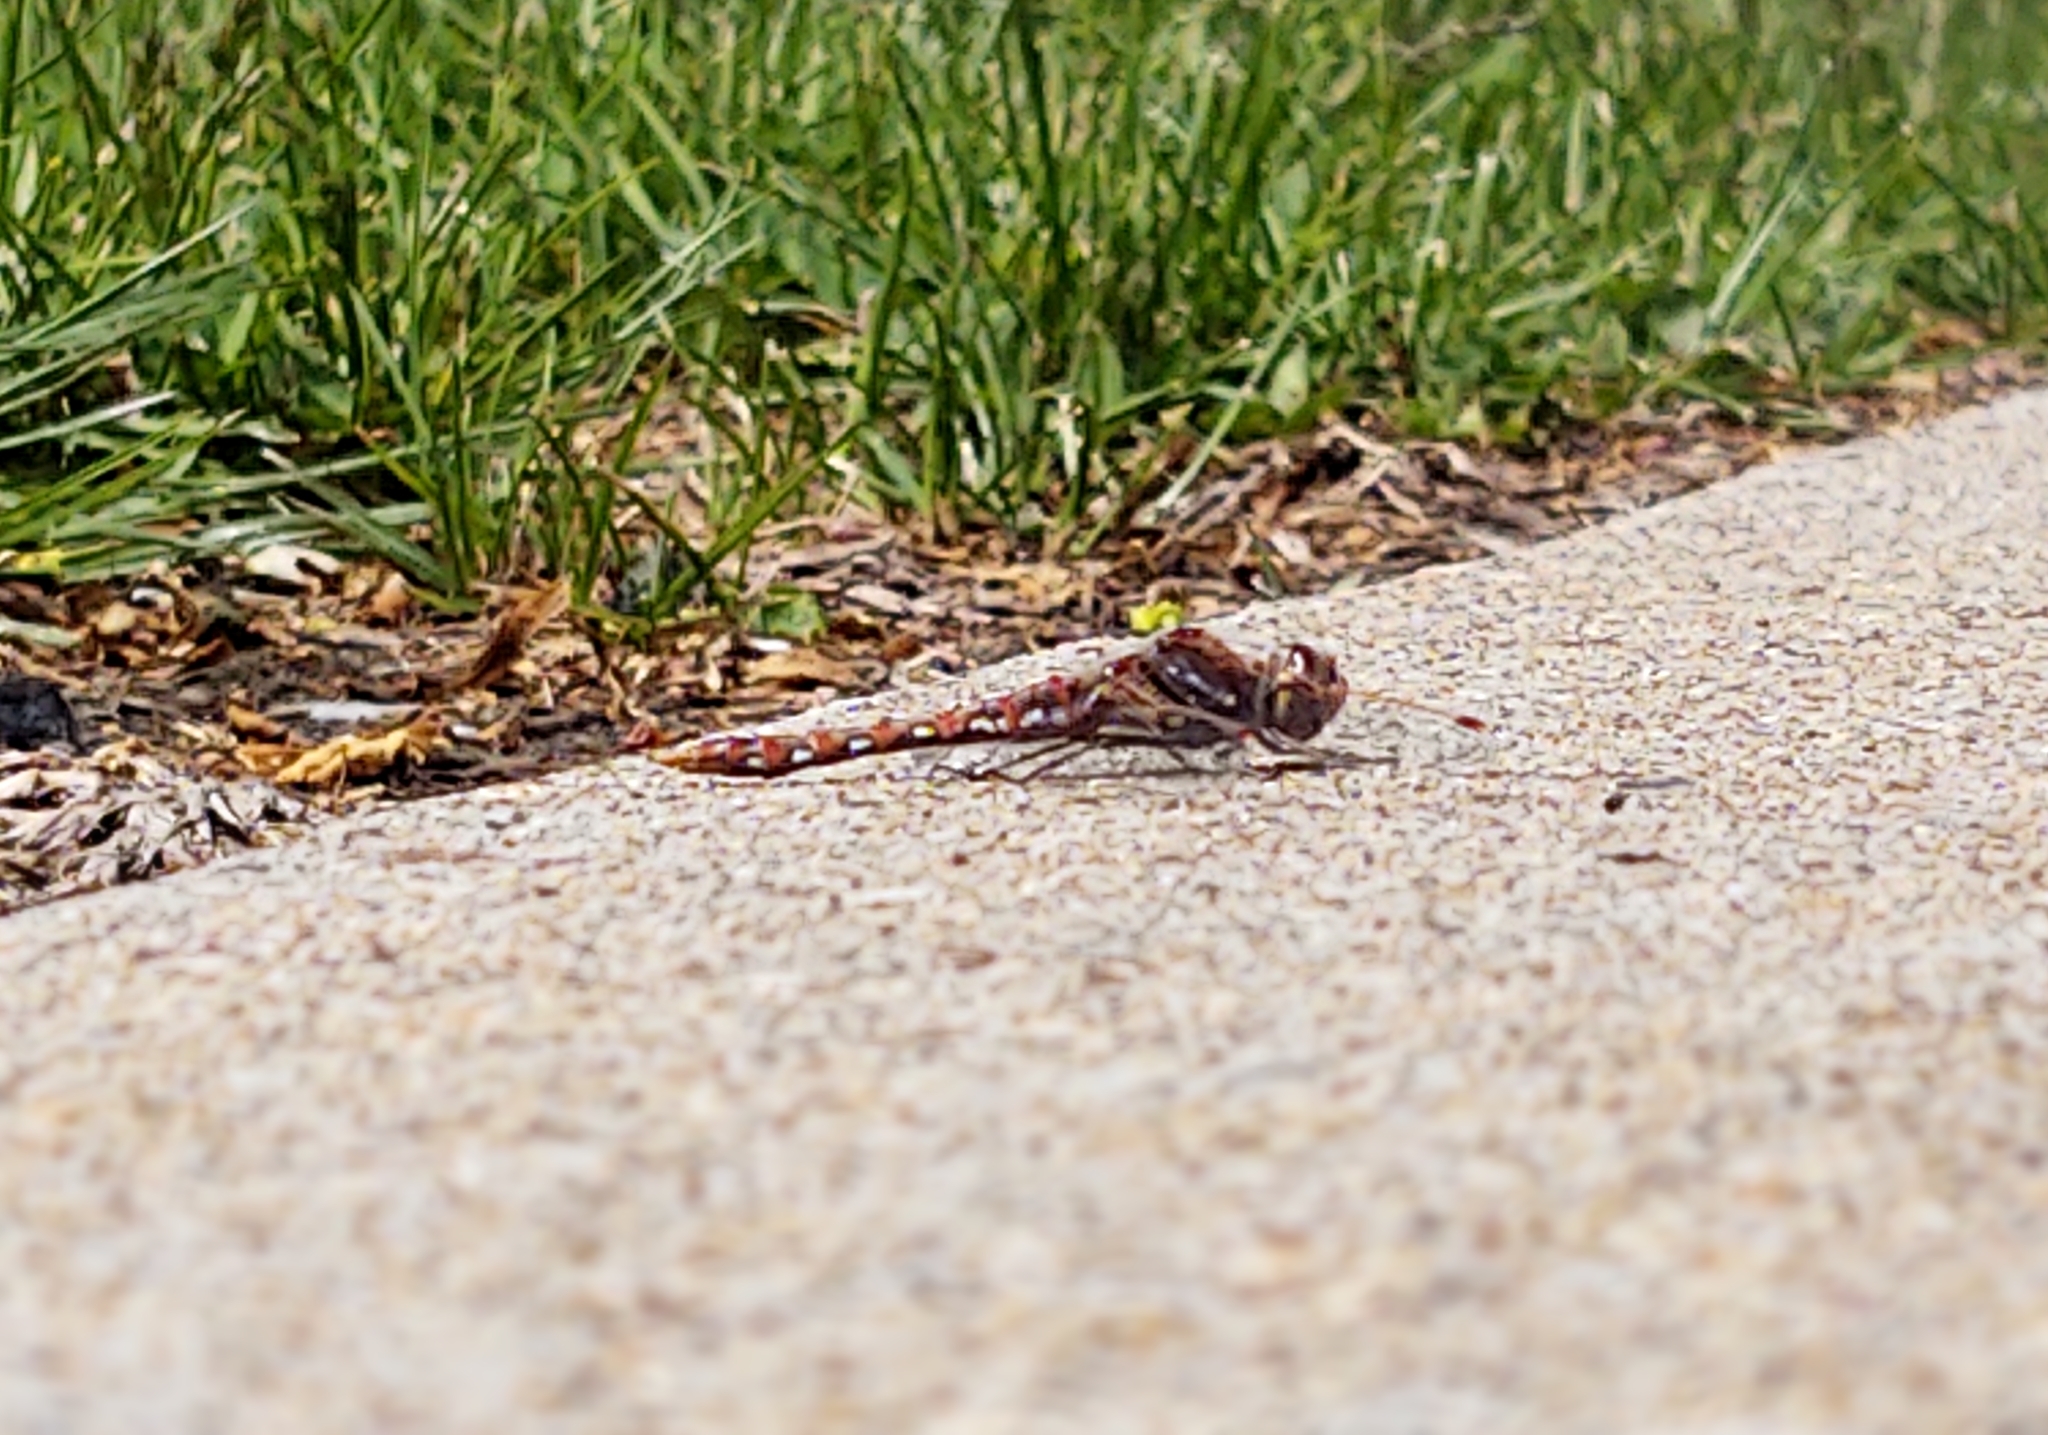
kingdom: Animalia
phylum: Arthropoda
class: Insecta
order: Odonata
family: Libellulidae
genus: Sympetrum
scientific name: Sympetrum corruptum
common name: Variegated meadowhawk
